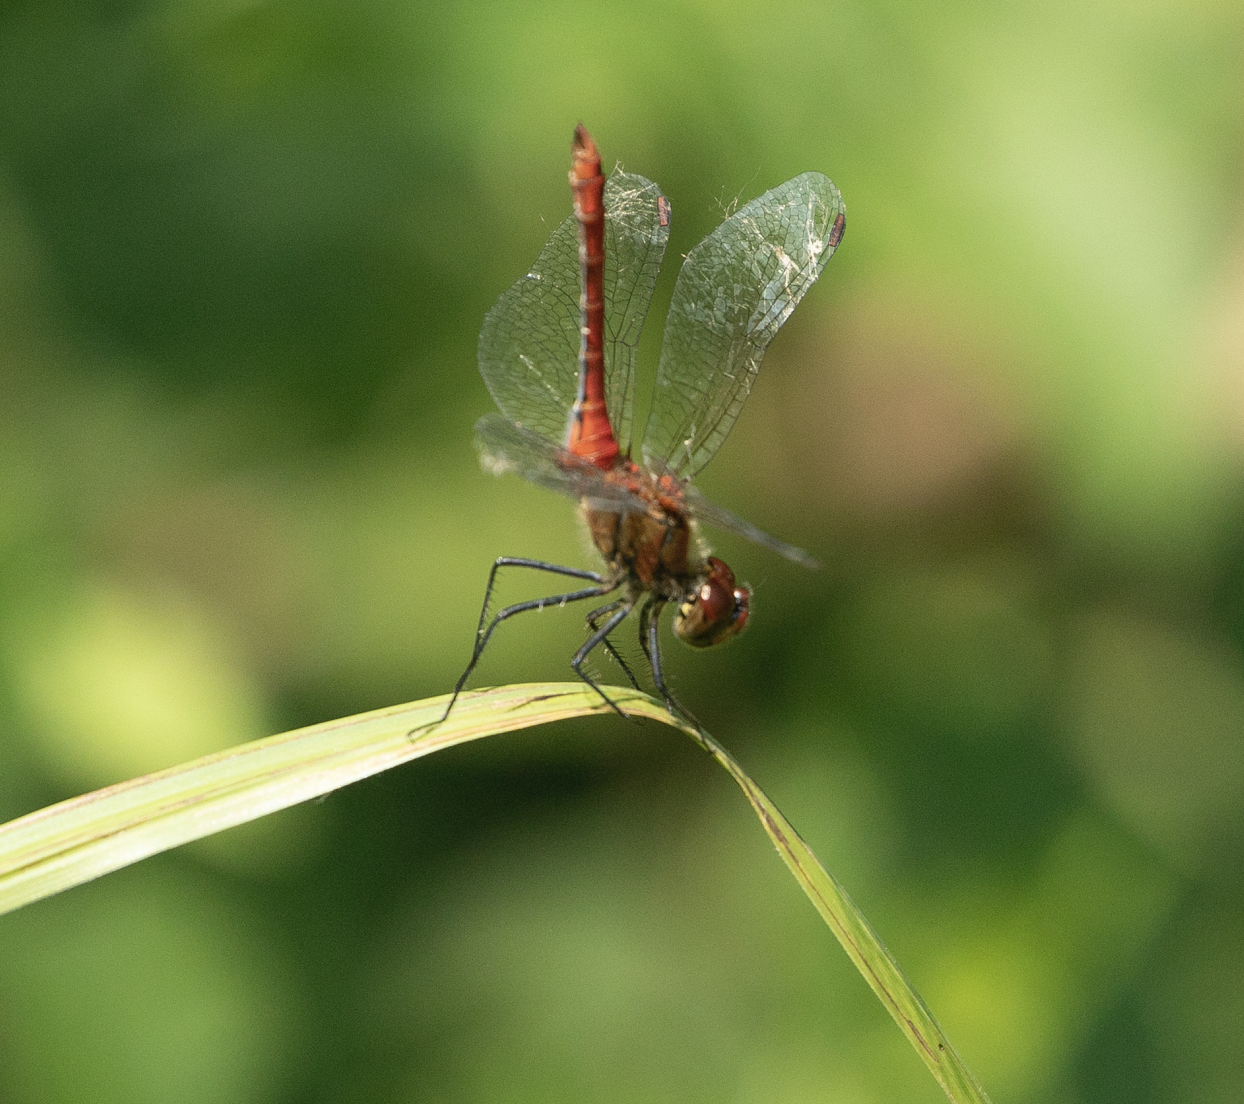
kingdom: Animalia
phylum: Arthropoda
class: Insecta
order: Odonata
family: Libellulidae
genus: Sympetrum
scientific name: Sympetrum sanguineum
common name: Ruddy darter
